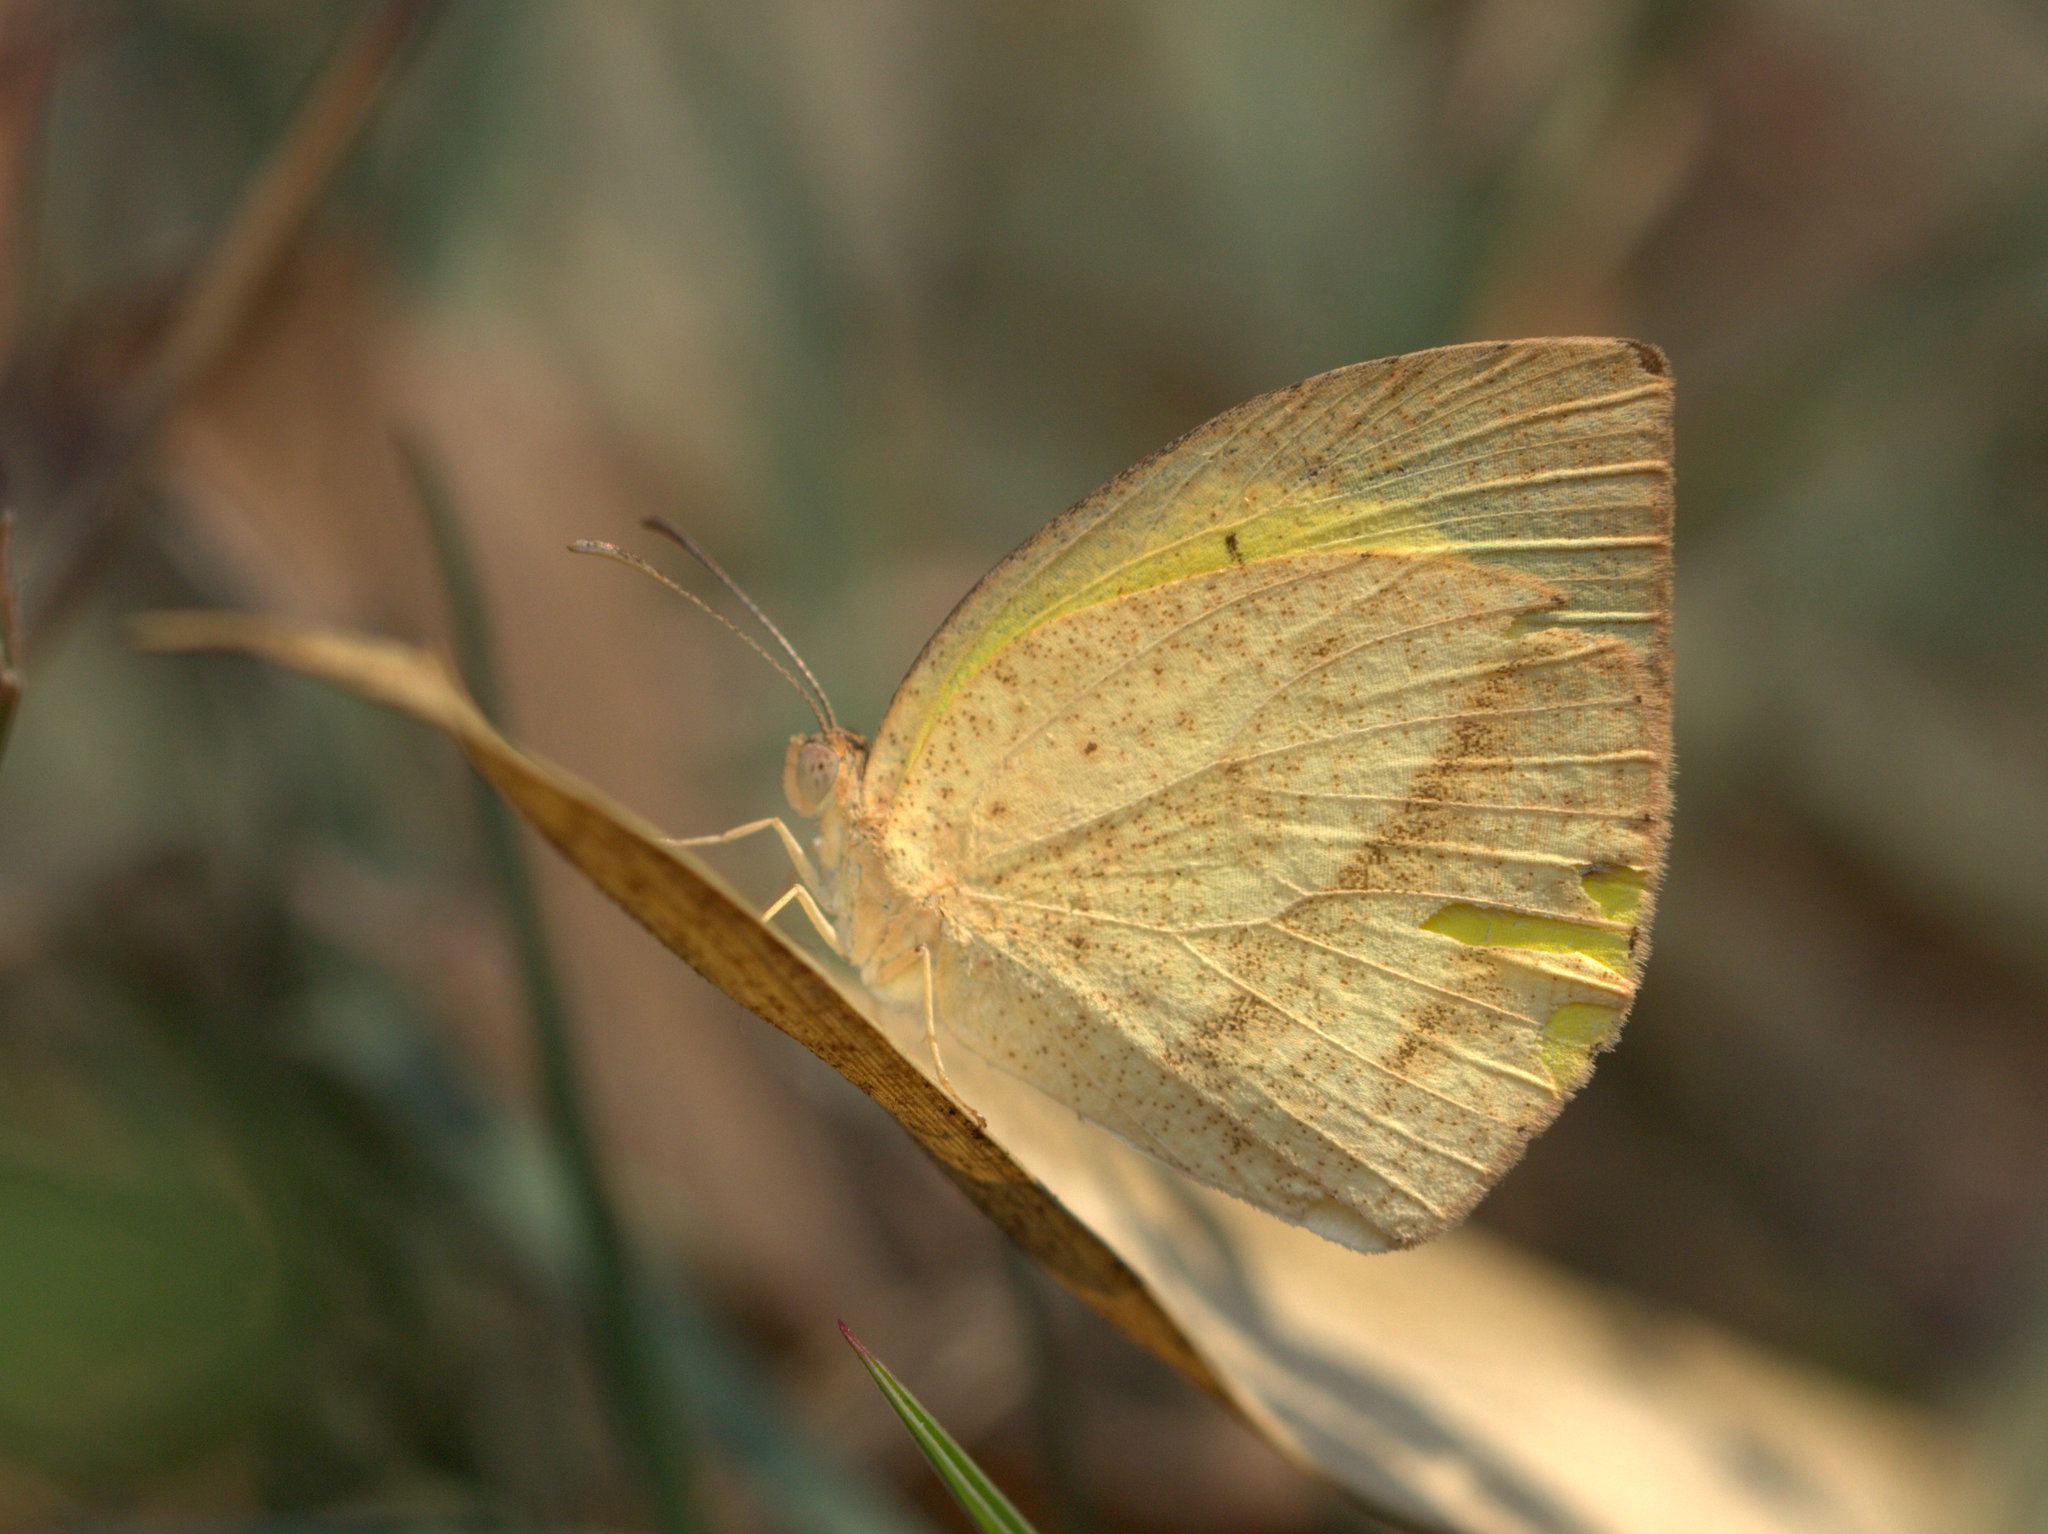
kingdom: Animalia
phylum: Arthropoda
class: Insecta
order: Lepidoptera
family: Pieridae
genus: Eurema
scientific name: Eurema laeta
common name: Spotless grass yellow
